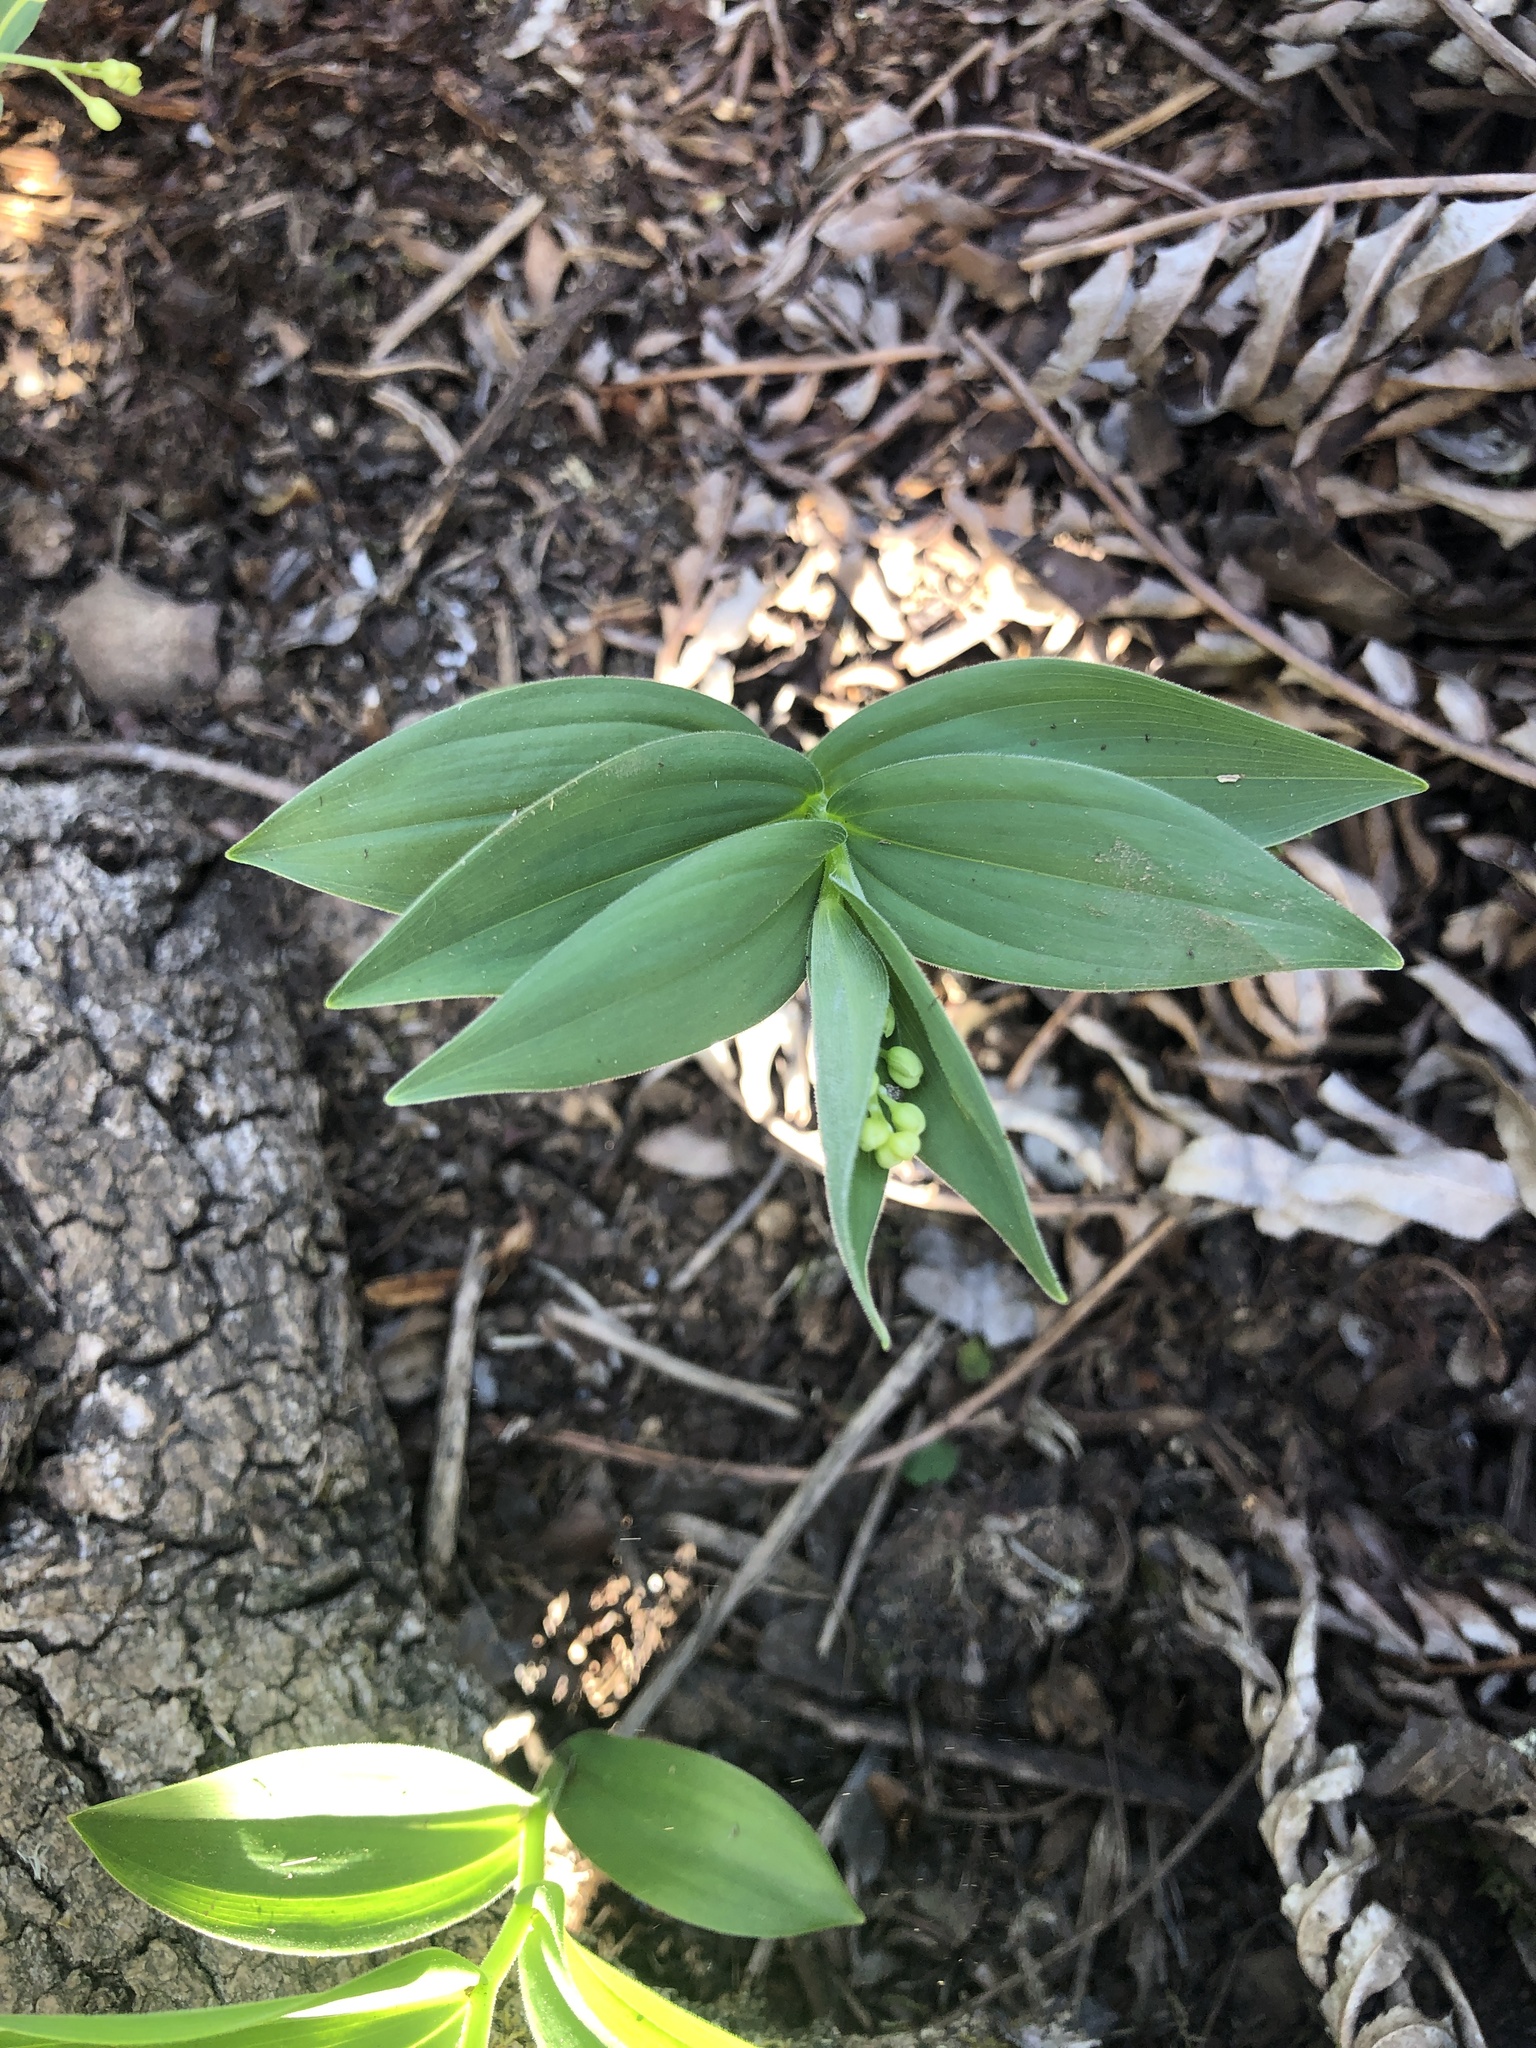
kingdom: Plantae
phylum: Tracheophyta
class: Liliopsida
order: Asparagales
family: Asparagaceae
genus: Maianthemum
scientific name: Maianthemum stellatum
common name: Little false solomon's seal
